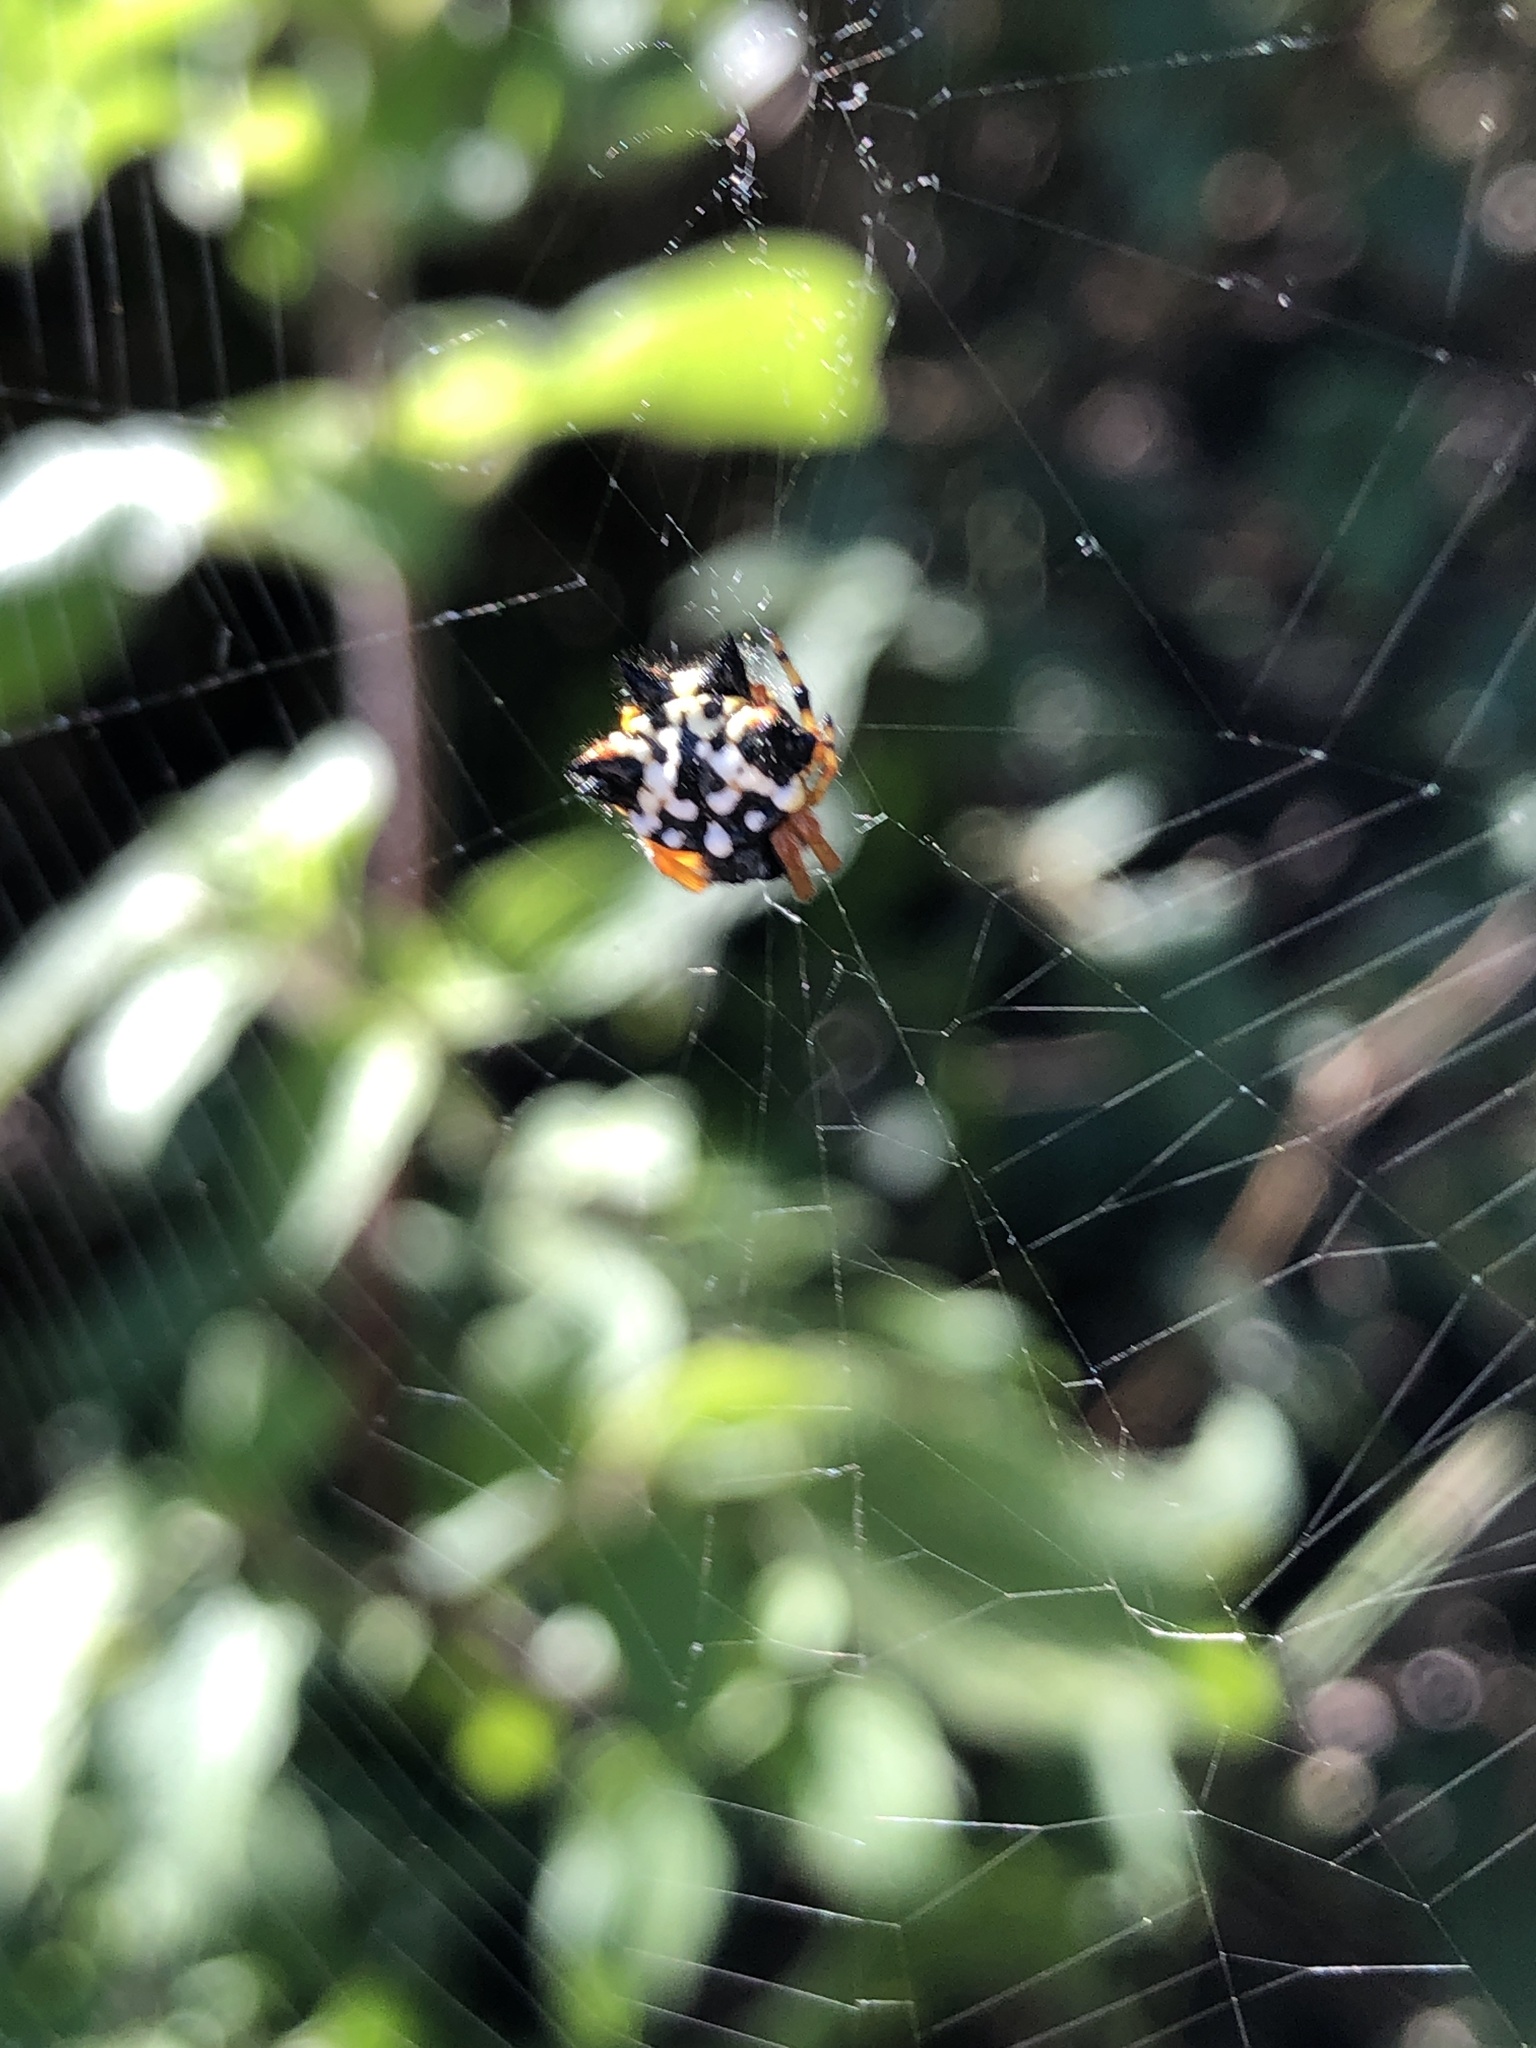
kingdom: Animalia
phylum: Arthropoda
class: Arachnida
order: Araneae
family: Araneidae
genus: Austracantha
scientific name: Austracantha minax
